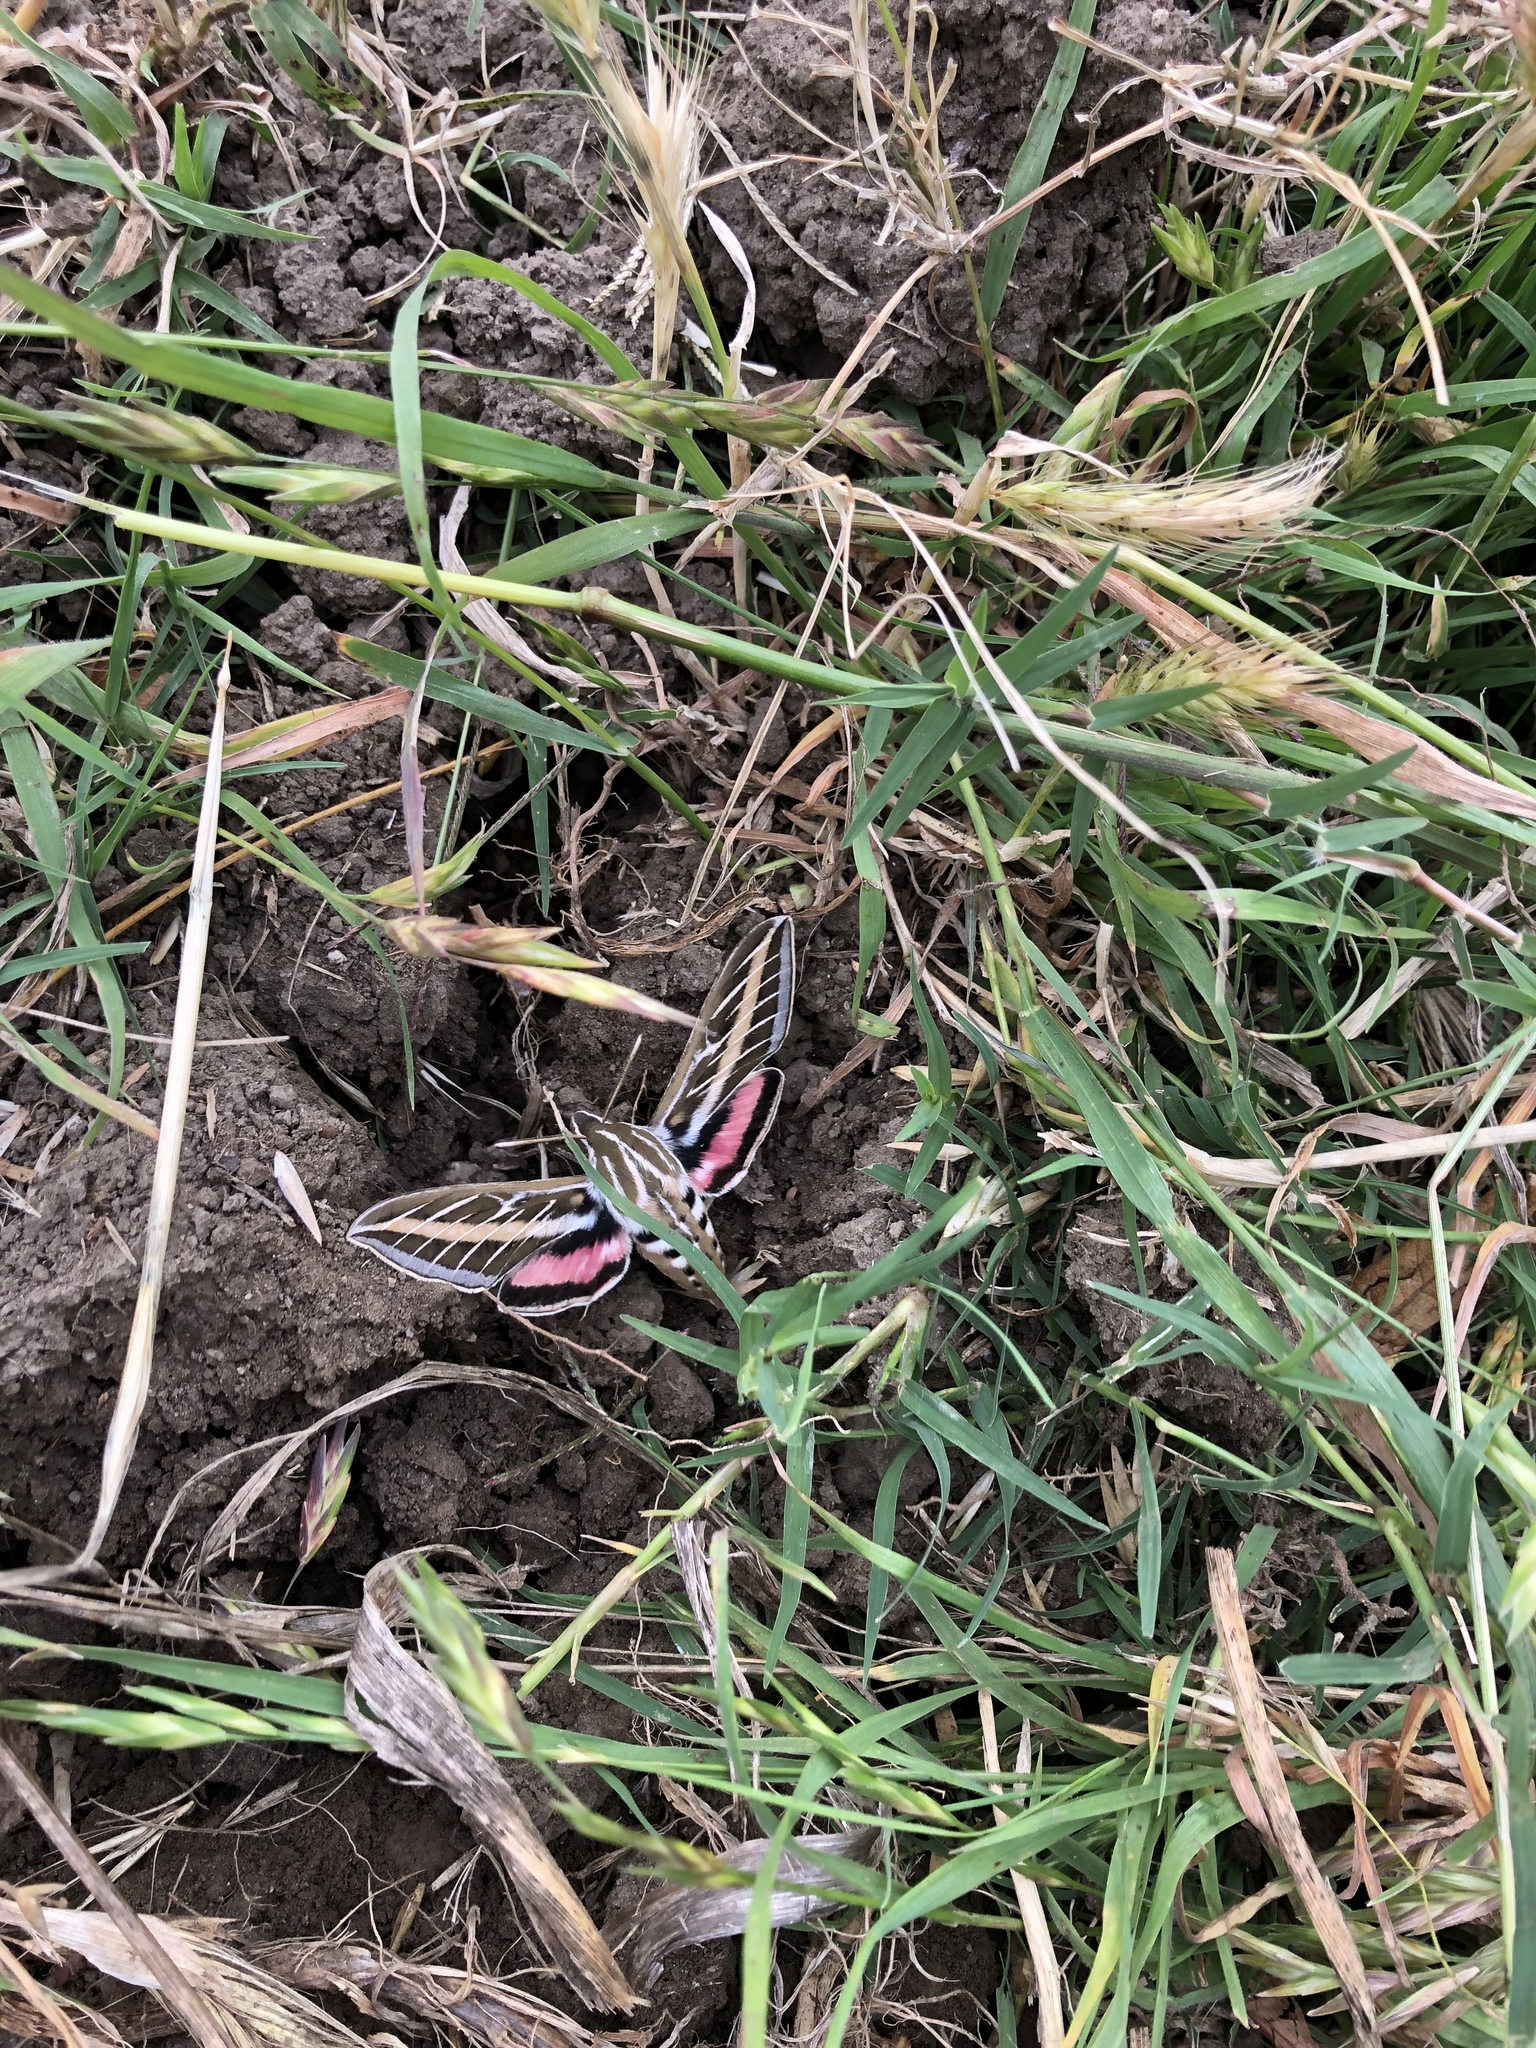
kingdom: Animalia
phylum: Arthropoda
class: Insecta
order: Lepidoptera
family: Sphingidae
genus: Hyles
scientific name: Hyles lineata
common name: White-lined sphinx
